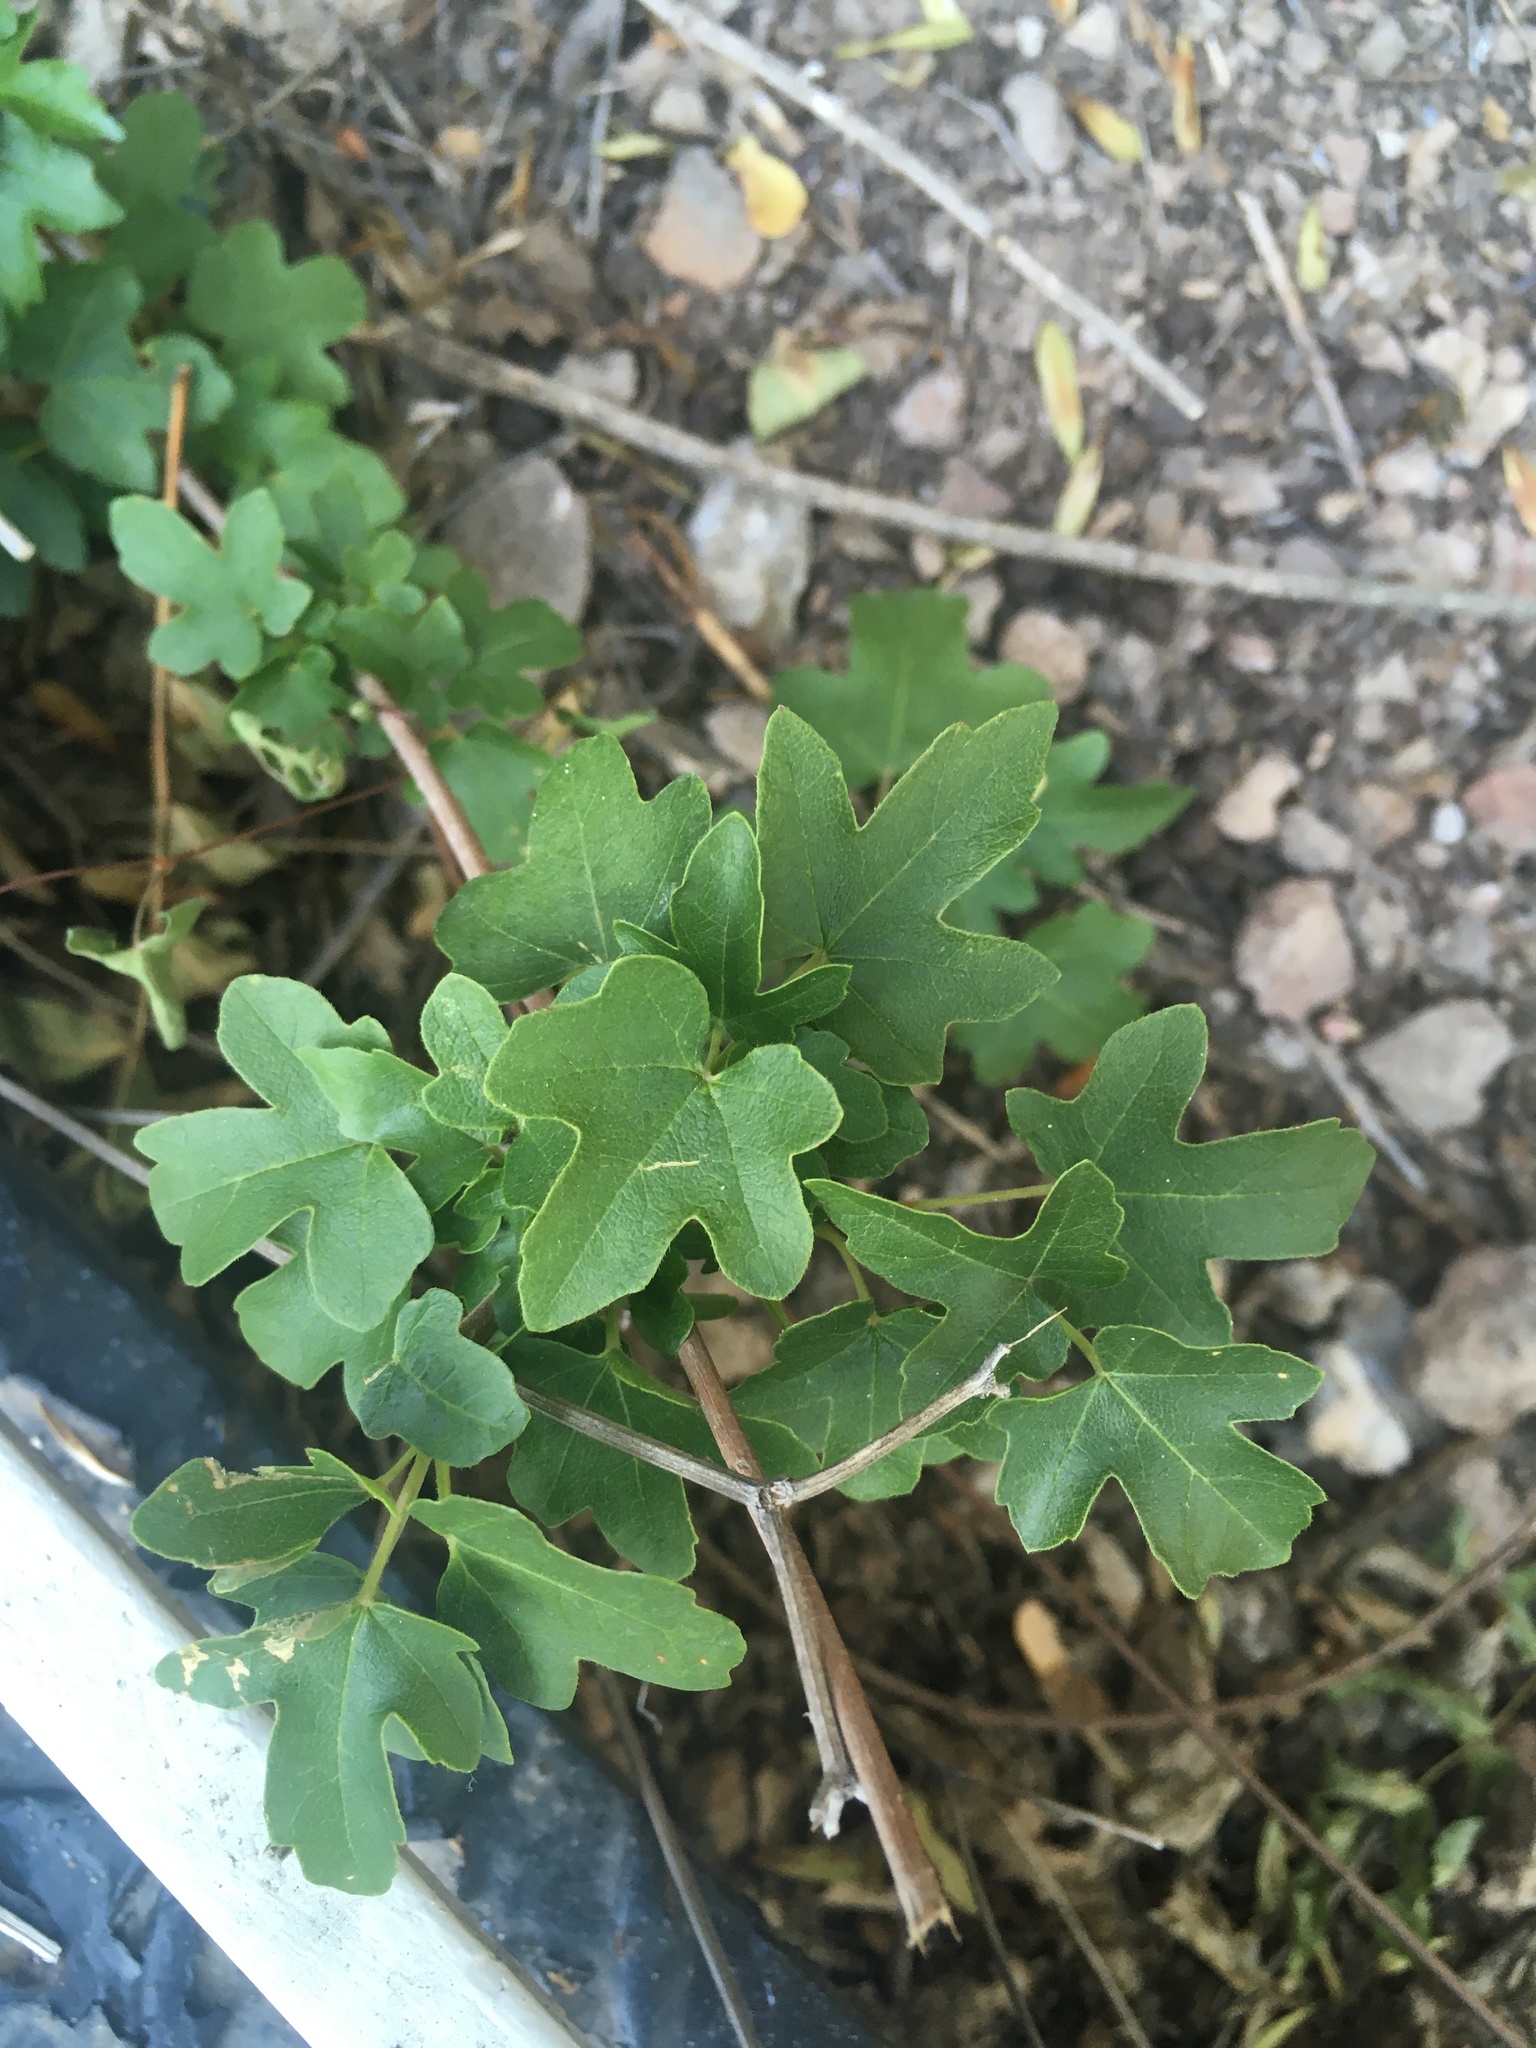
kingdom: Plantae
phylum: Tracheophyta
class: Magnoliopsida
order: Rosales
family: Moraceae
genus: Ficus
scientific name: Ficus carica
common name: Fig
